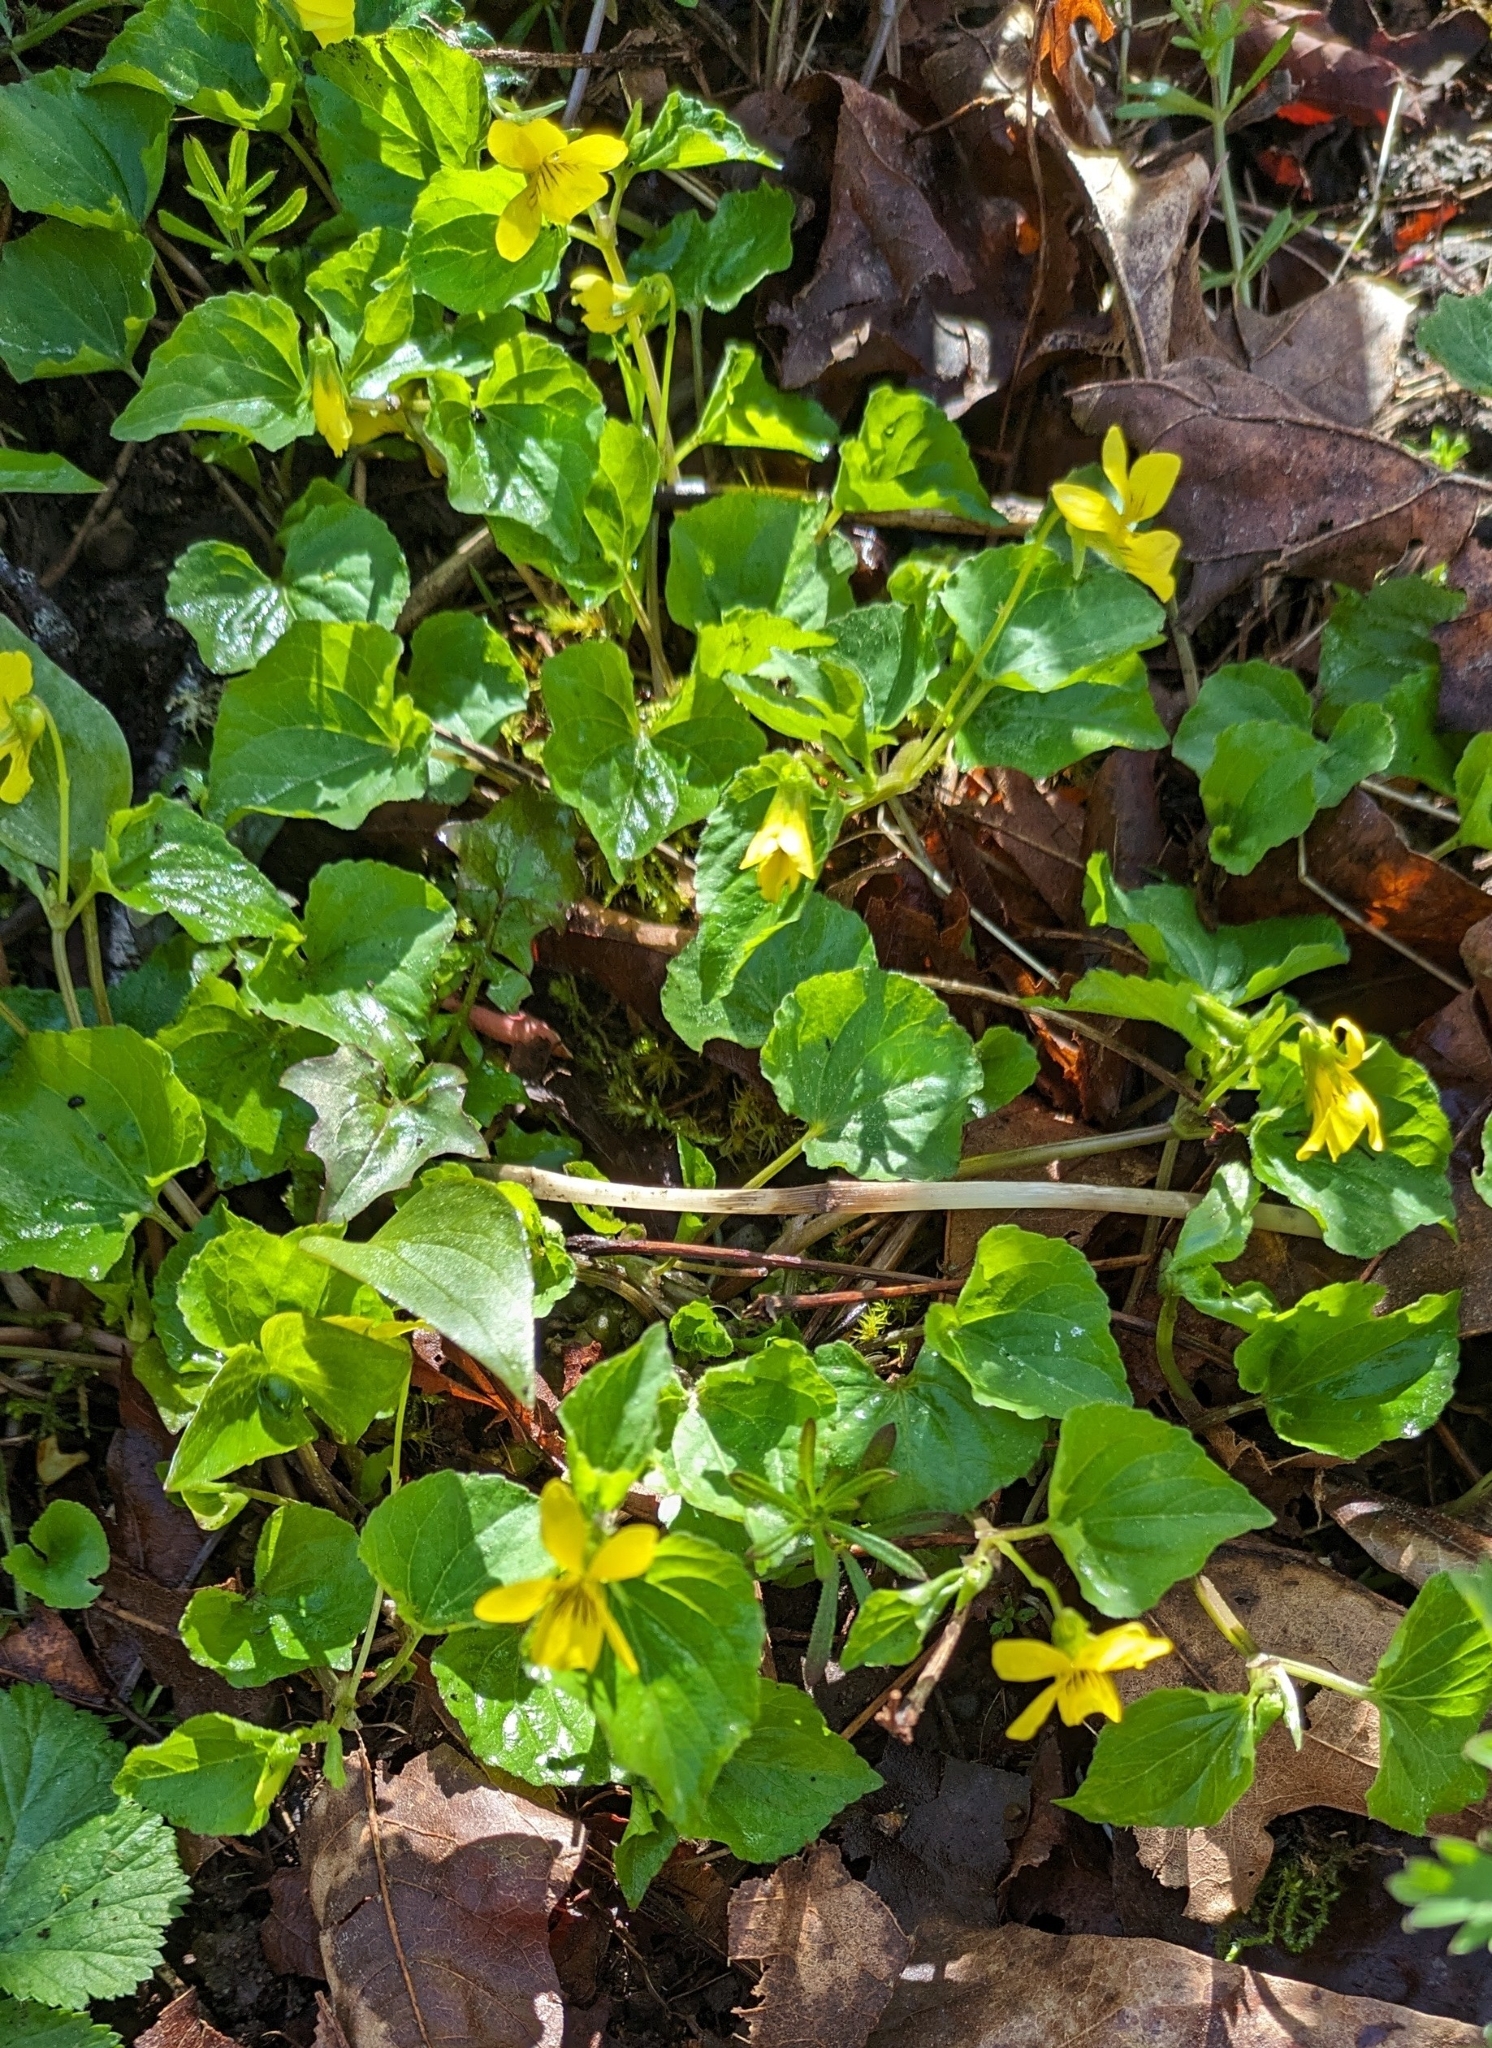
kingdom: Plantae
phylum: Tracheophyta
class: Magnoliopsida
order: Malpighiales
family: Violaceae
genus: Viola
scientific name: Viola glabella
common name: Stream violet
